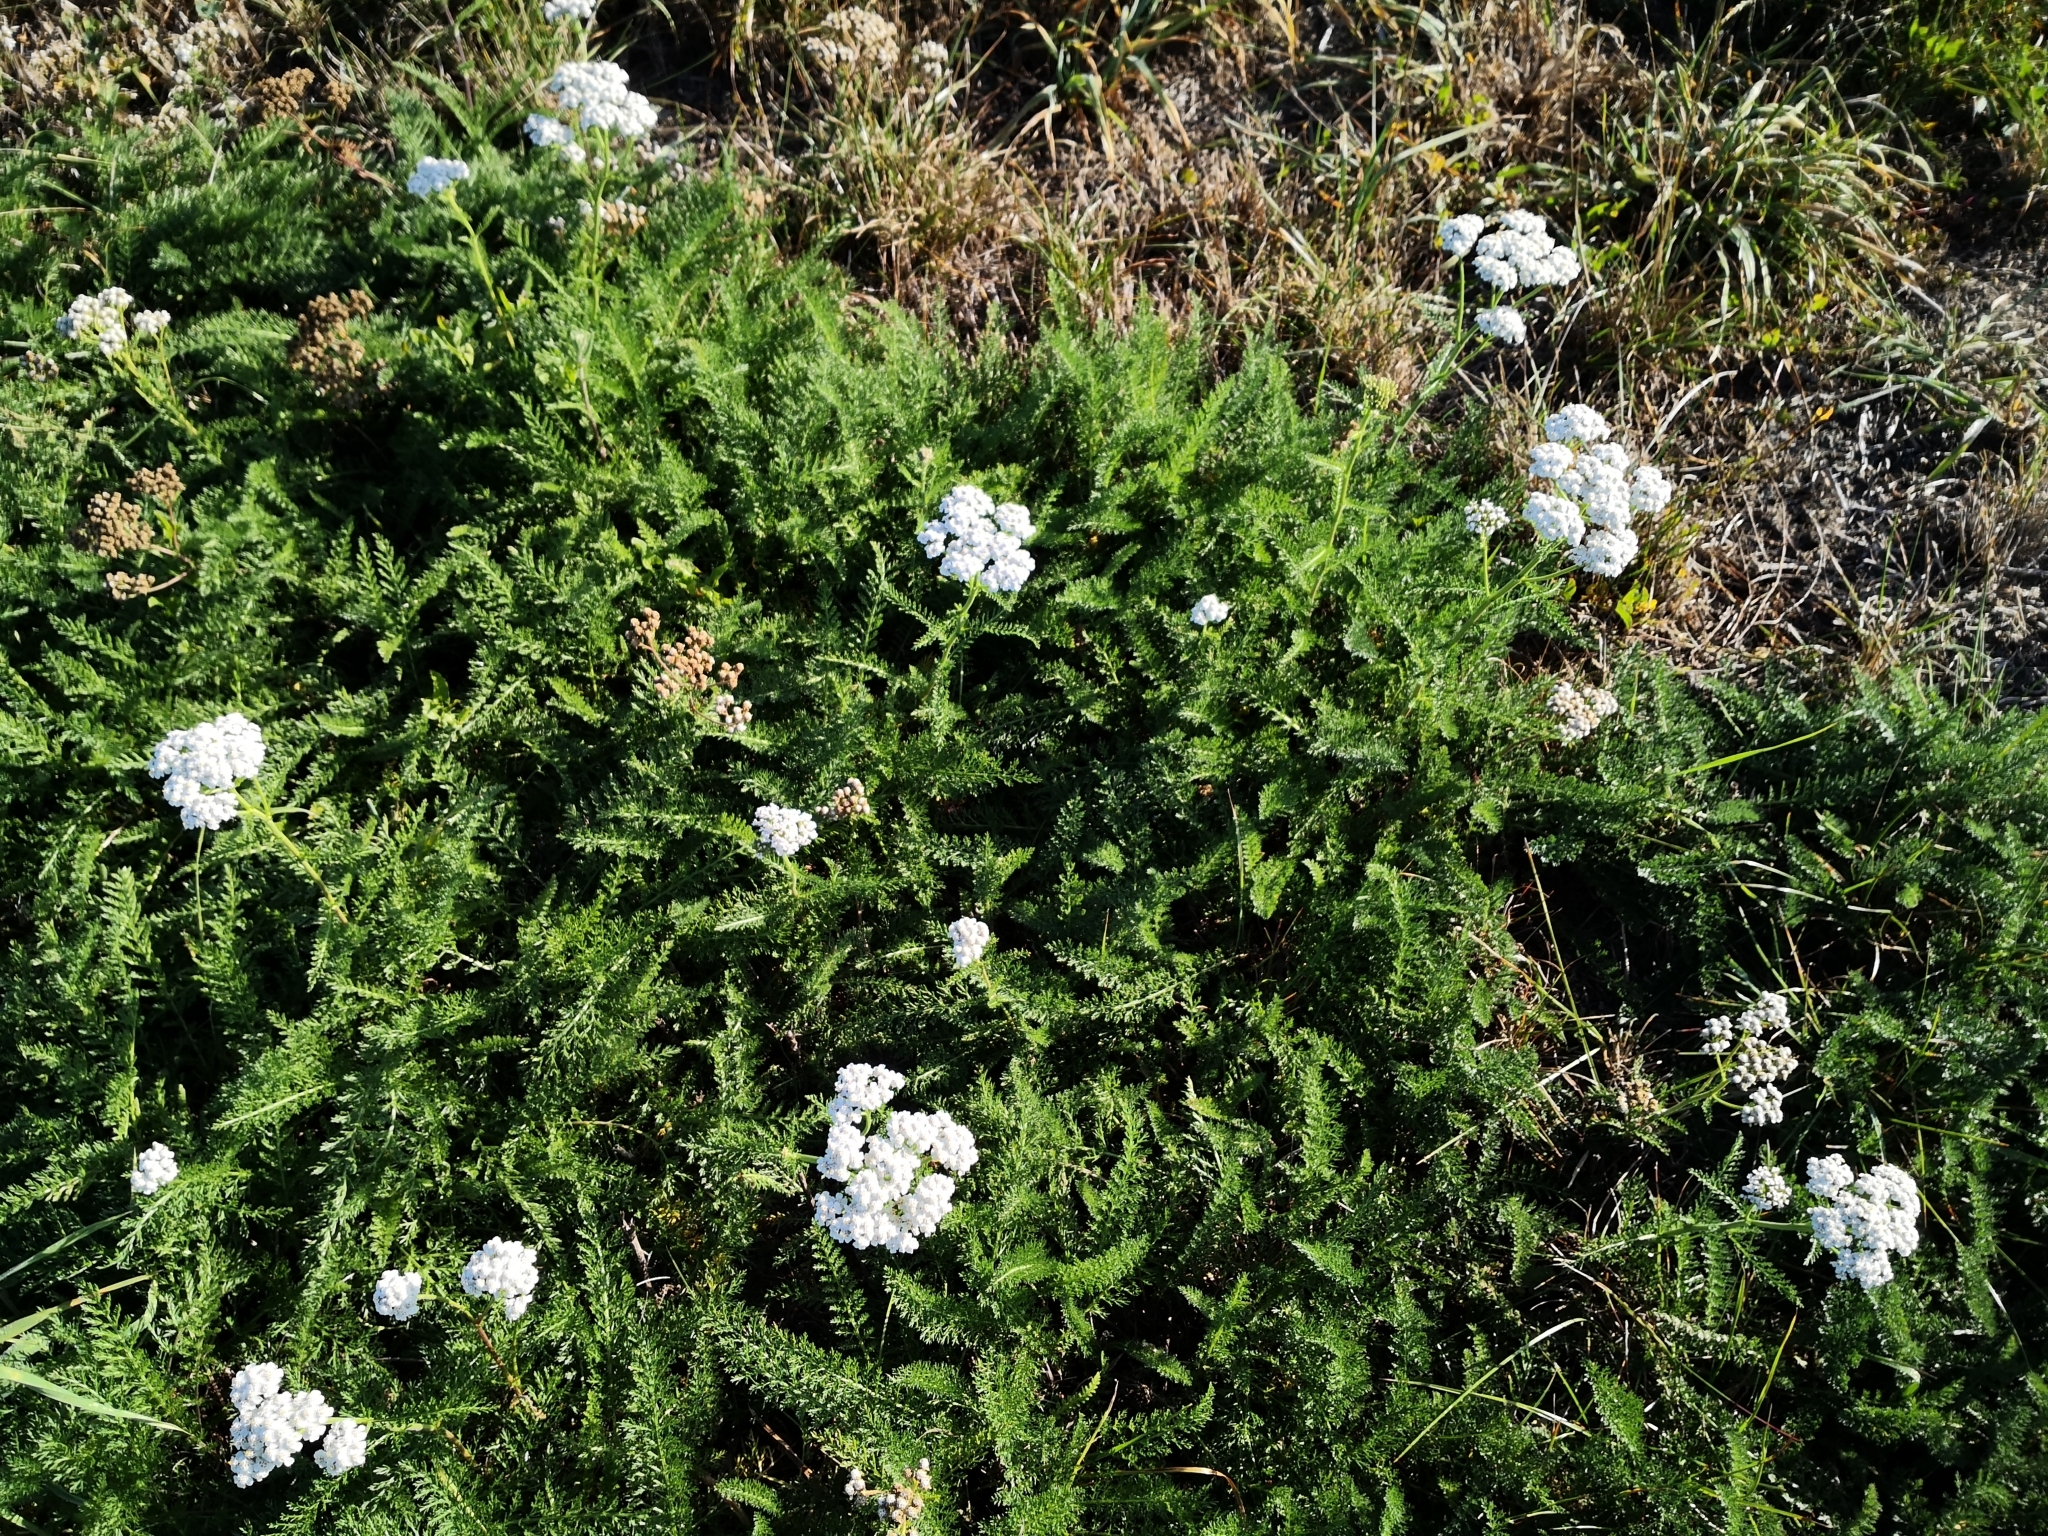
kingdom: Plantae
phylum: Tracheophyta
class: Magnoliopsida
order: Asterales
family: Asteraceae
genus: Achillea
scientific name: Achillea millefolium
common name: Yarrow
